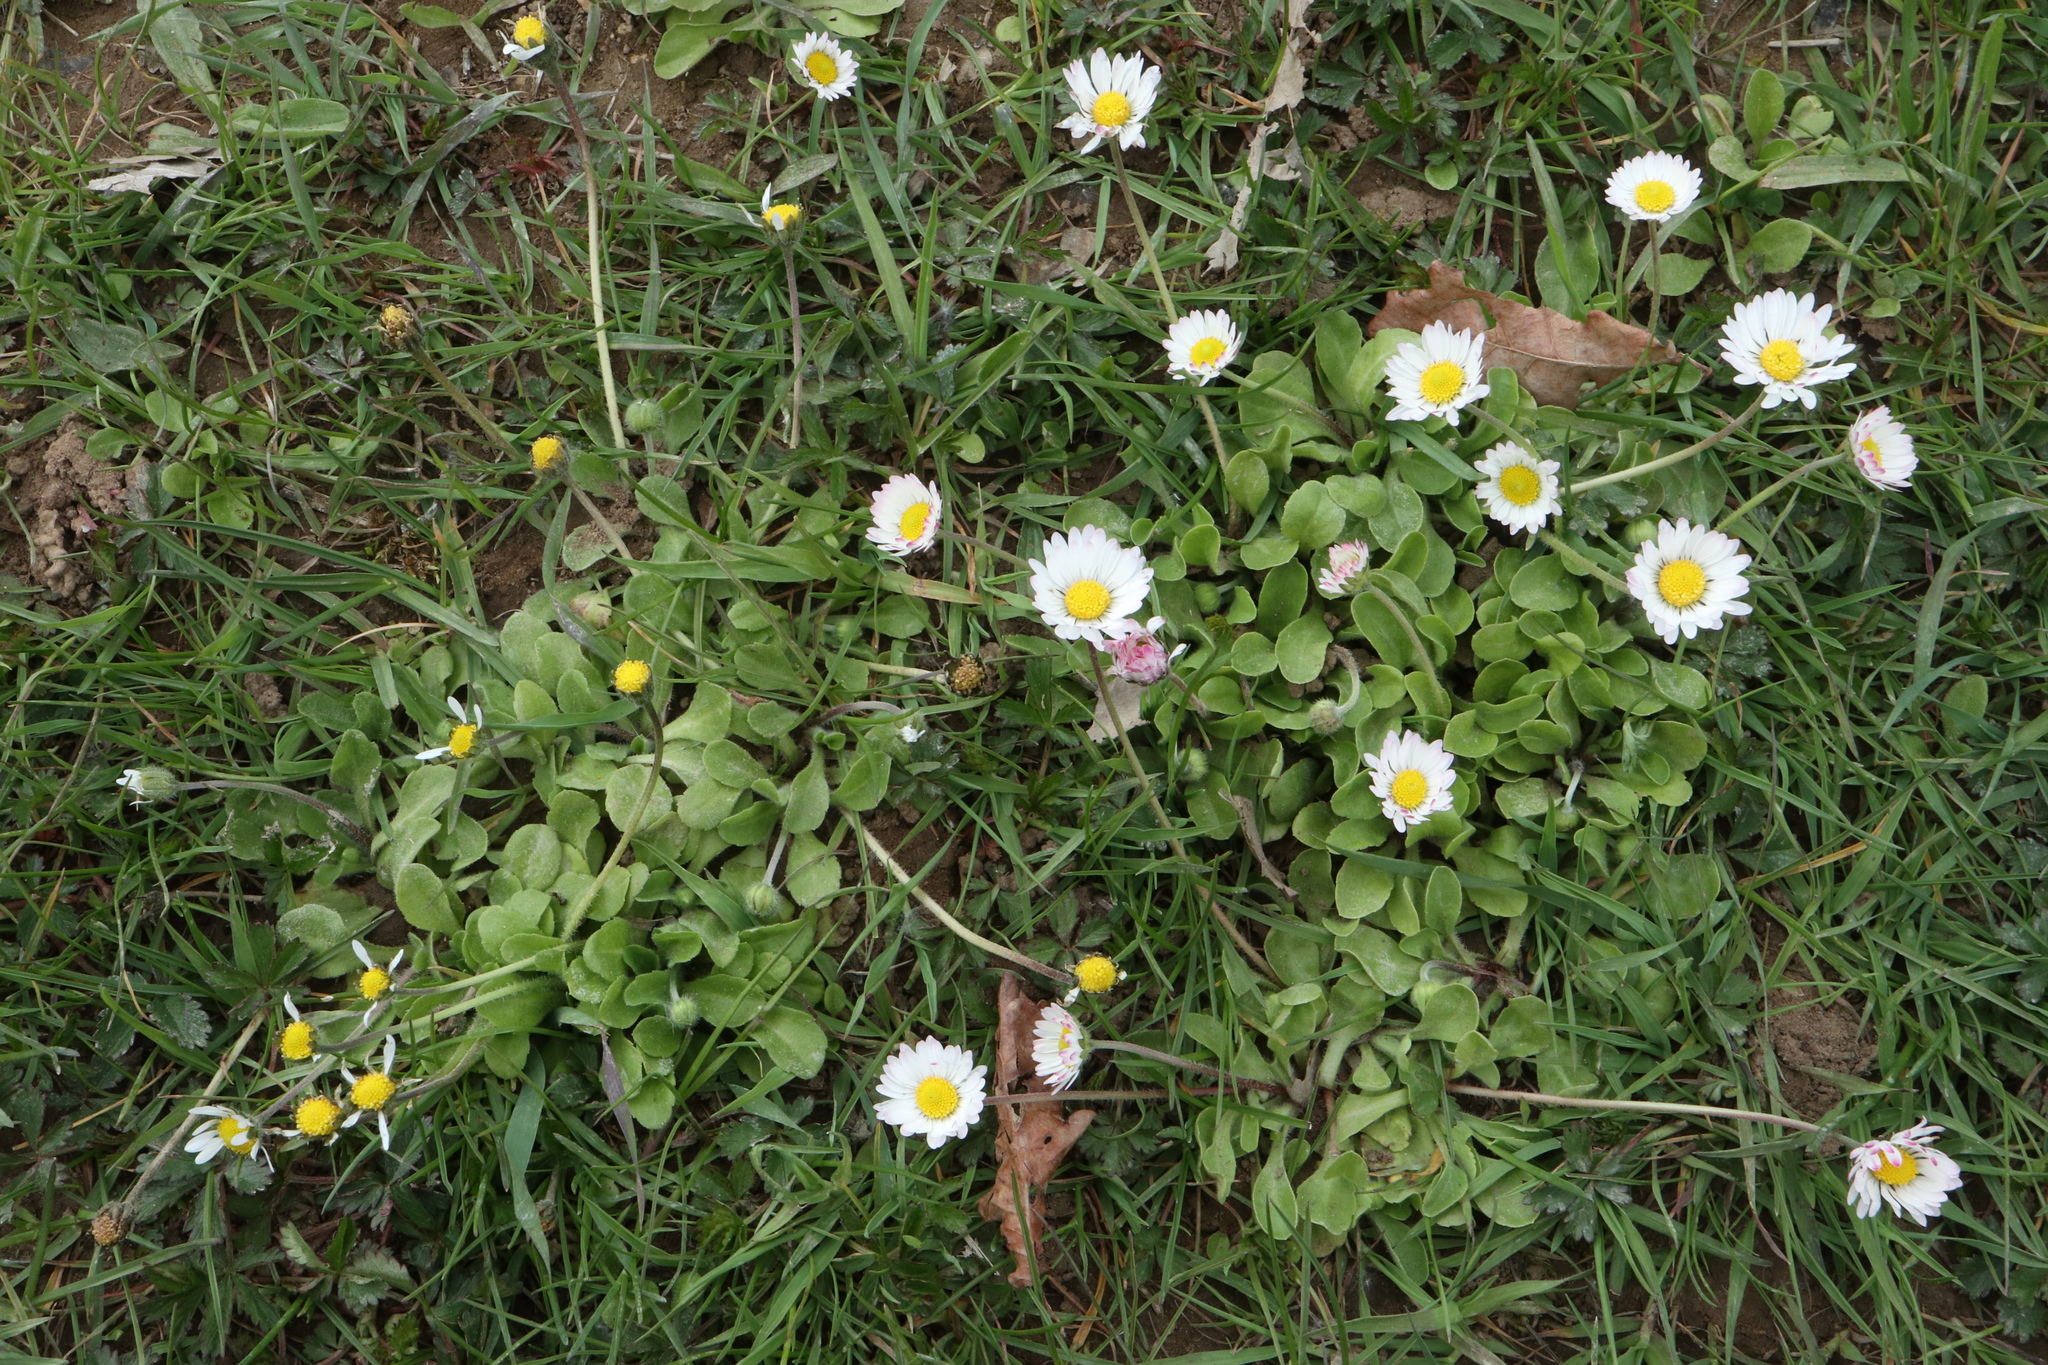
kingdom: Plantae
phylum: Tracheophyta
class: Magnoliopsida
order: Asterales
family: Asteraceae
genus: Bellis
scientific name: Bellis perennis
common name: Lawndaisy
